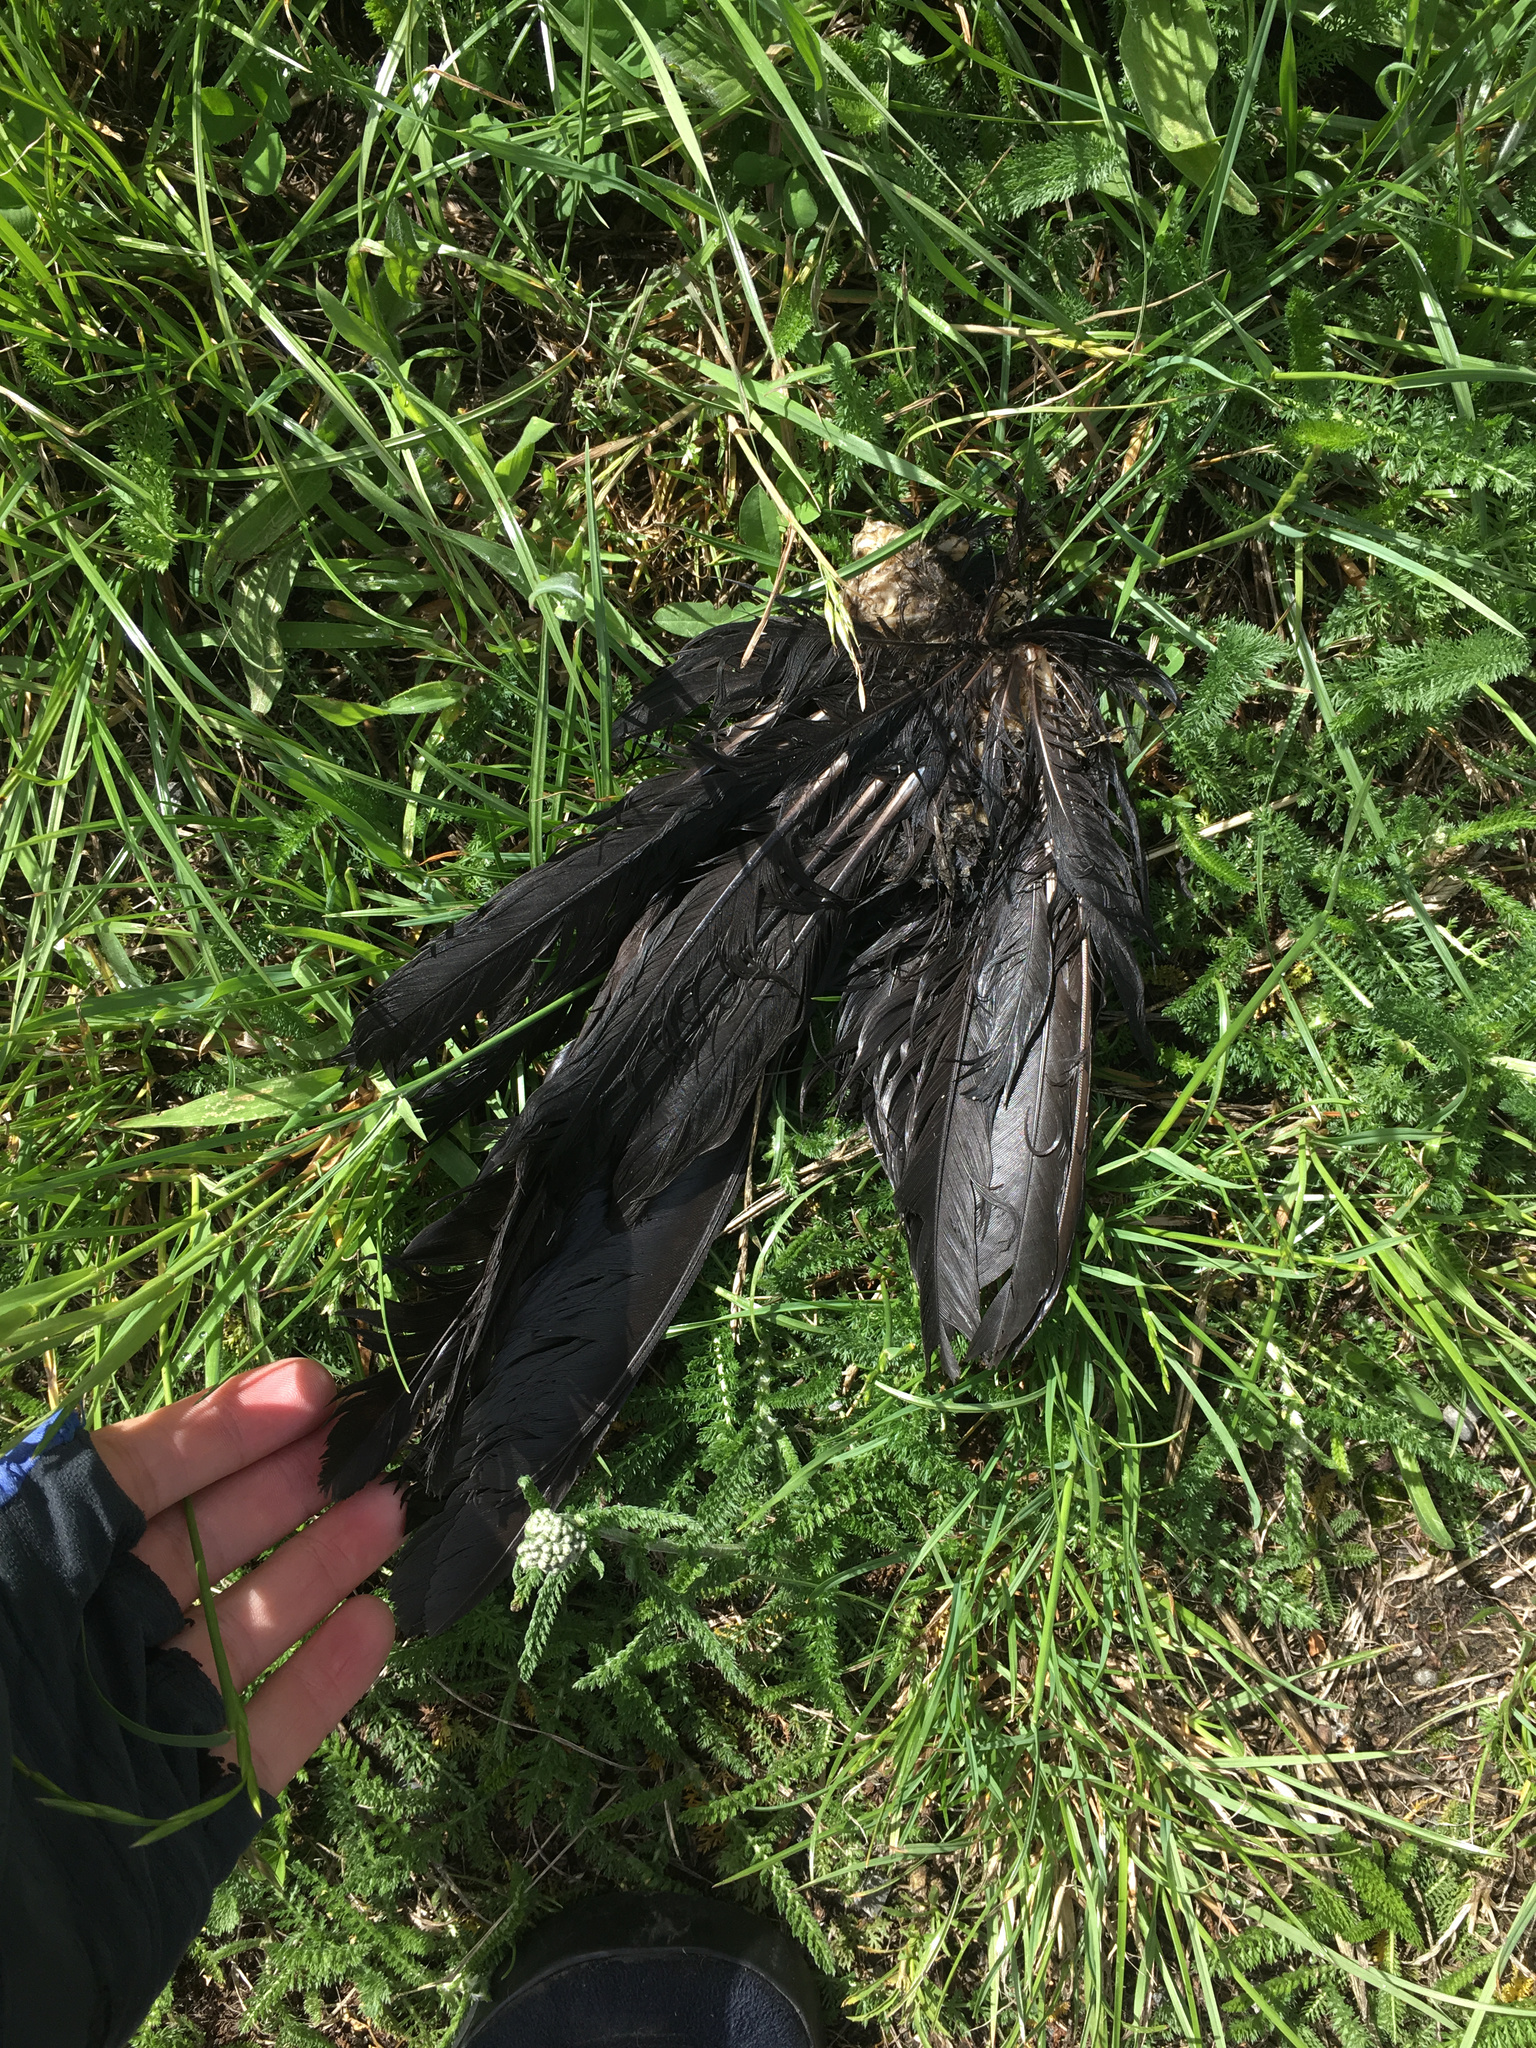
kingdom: Animalia
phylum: Chordata
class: Aves
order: Gruiformes
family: Rallidae
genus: Porphyrio
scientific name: Porphyrio melanotus
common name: Australasian swamphen
